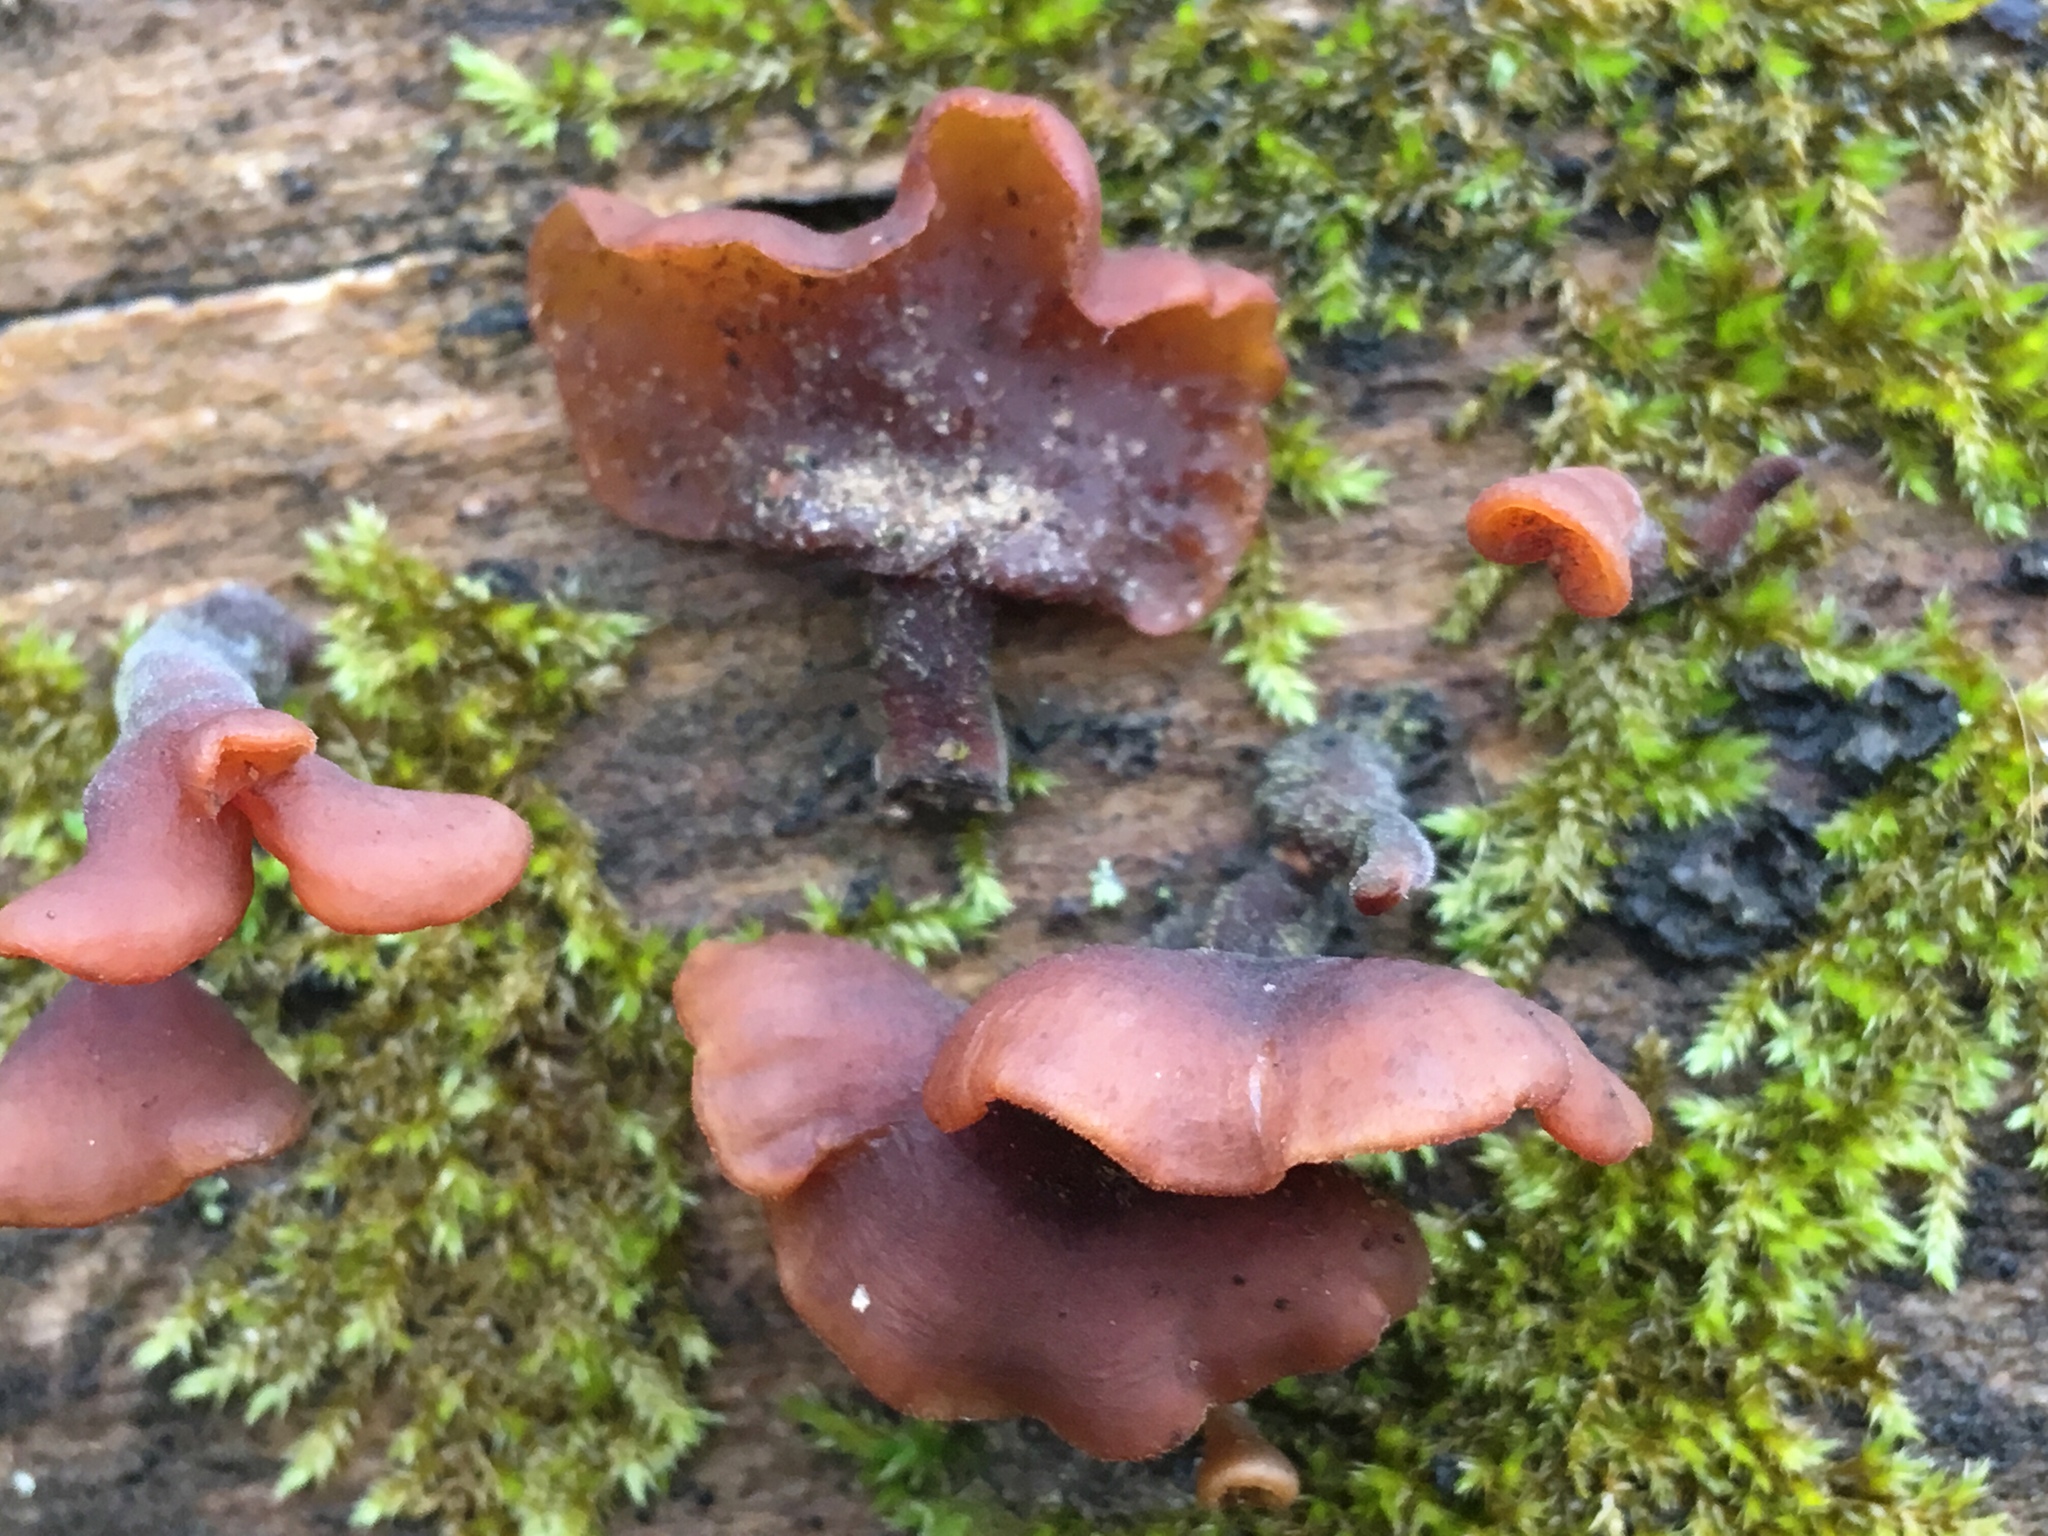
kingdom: Fungi
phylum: Basidiomycota
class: Dacrymycetes
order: Dacrymycetales
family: Dacrymycetaceae
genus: Dacryopinax
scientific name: Dacryopinax elegans
